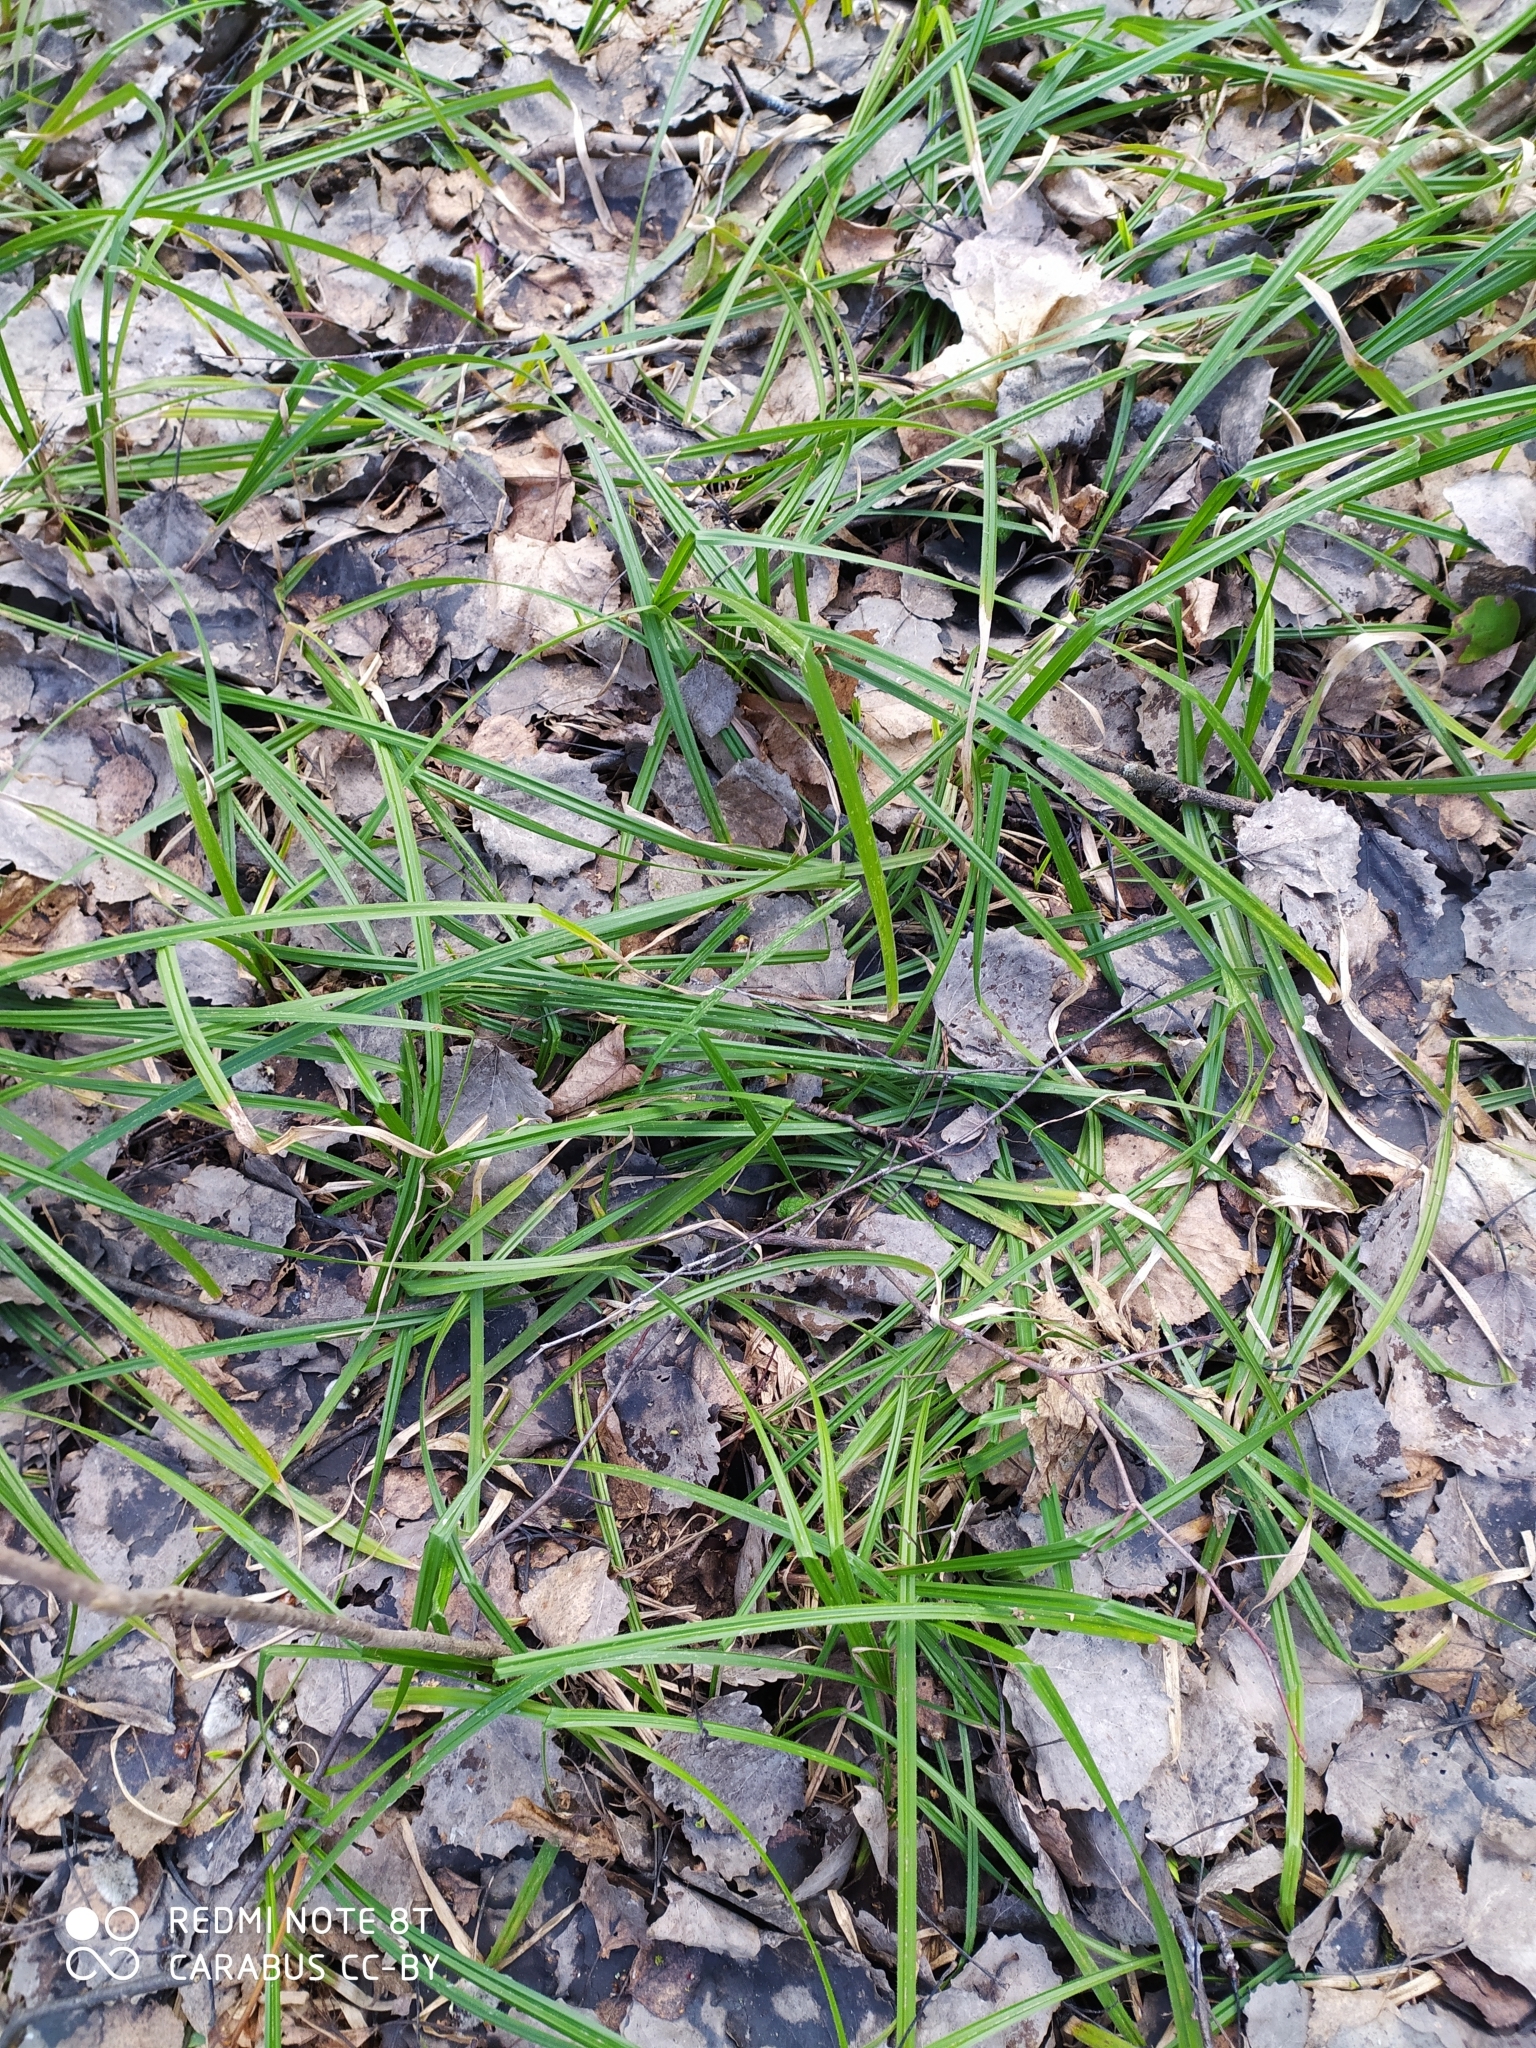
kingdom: Plantae
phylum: Tracheophyta
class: Liliopsida
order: Poales
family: Cyperaceae
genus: Carex
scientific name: Carex pilosa
